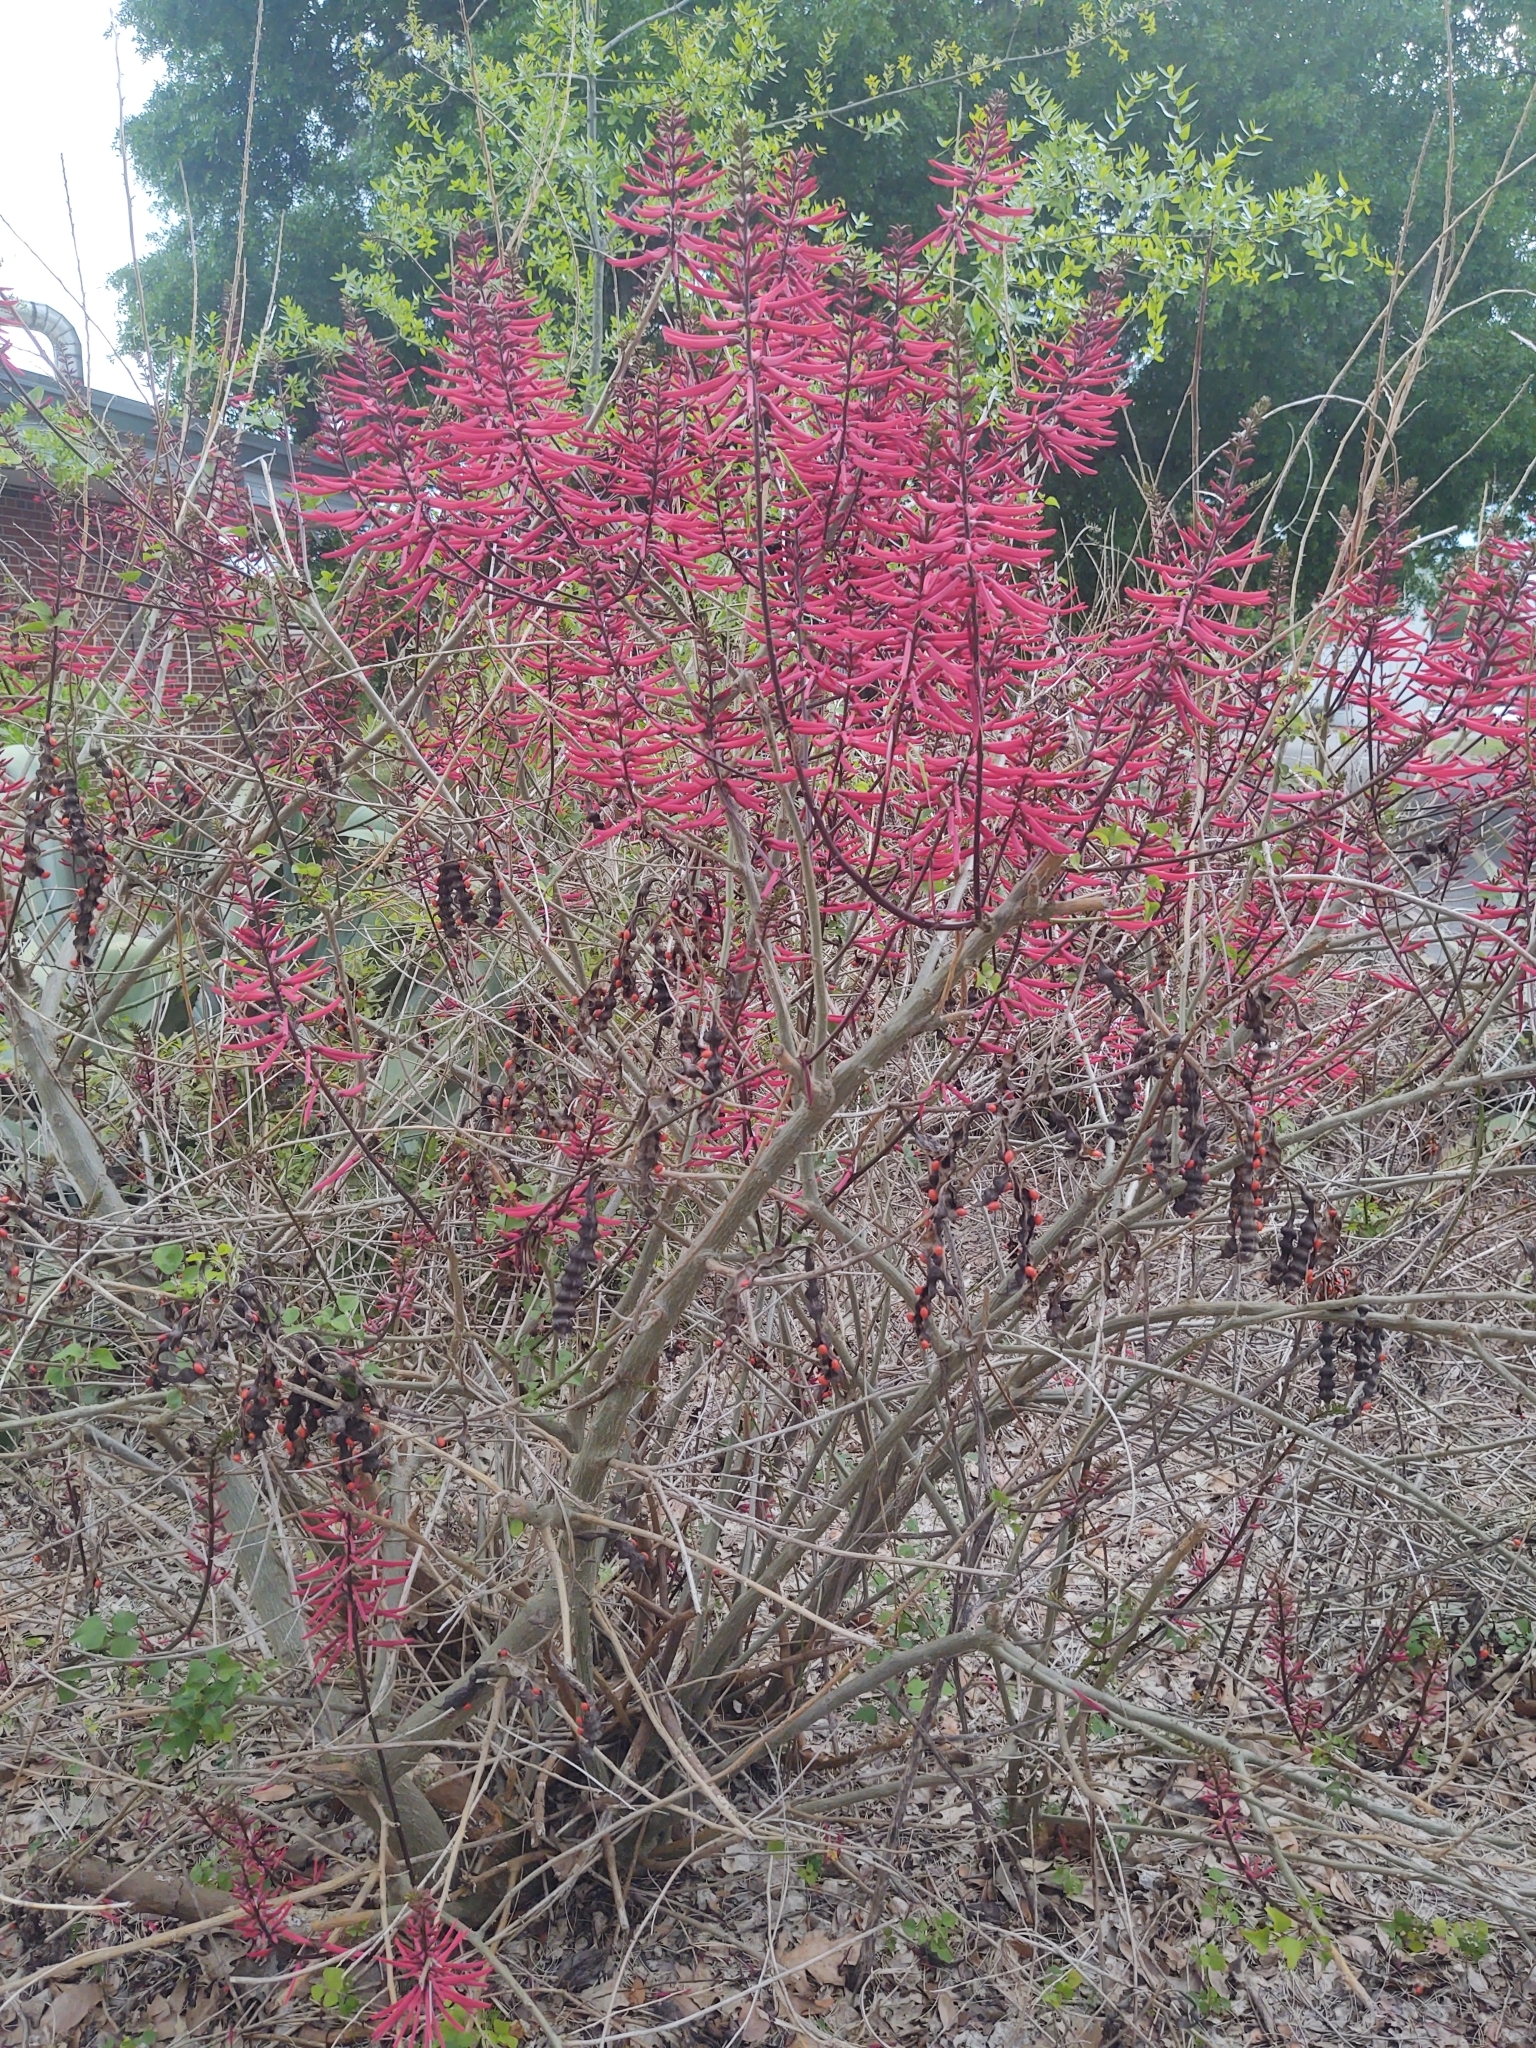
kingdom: Plantae
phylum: Tracheophyta
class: Magnoliopsida
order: Fabales
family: Fabaceae
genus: Erythrina
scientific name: Erythrina herbacea
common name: Coral-bean
